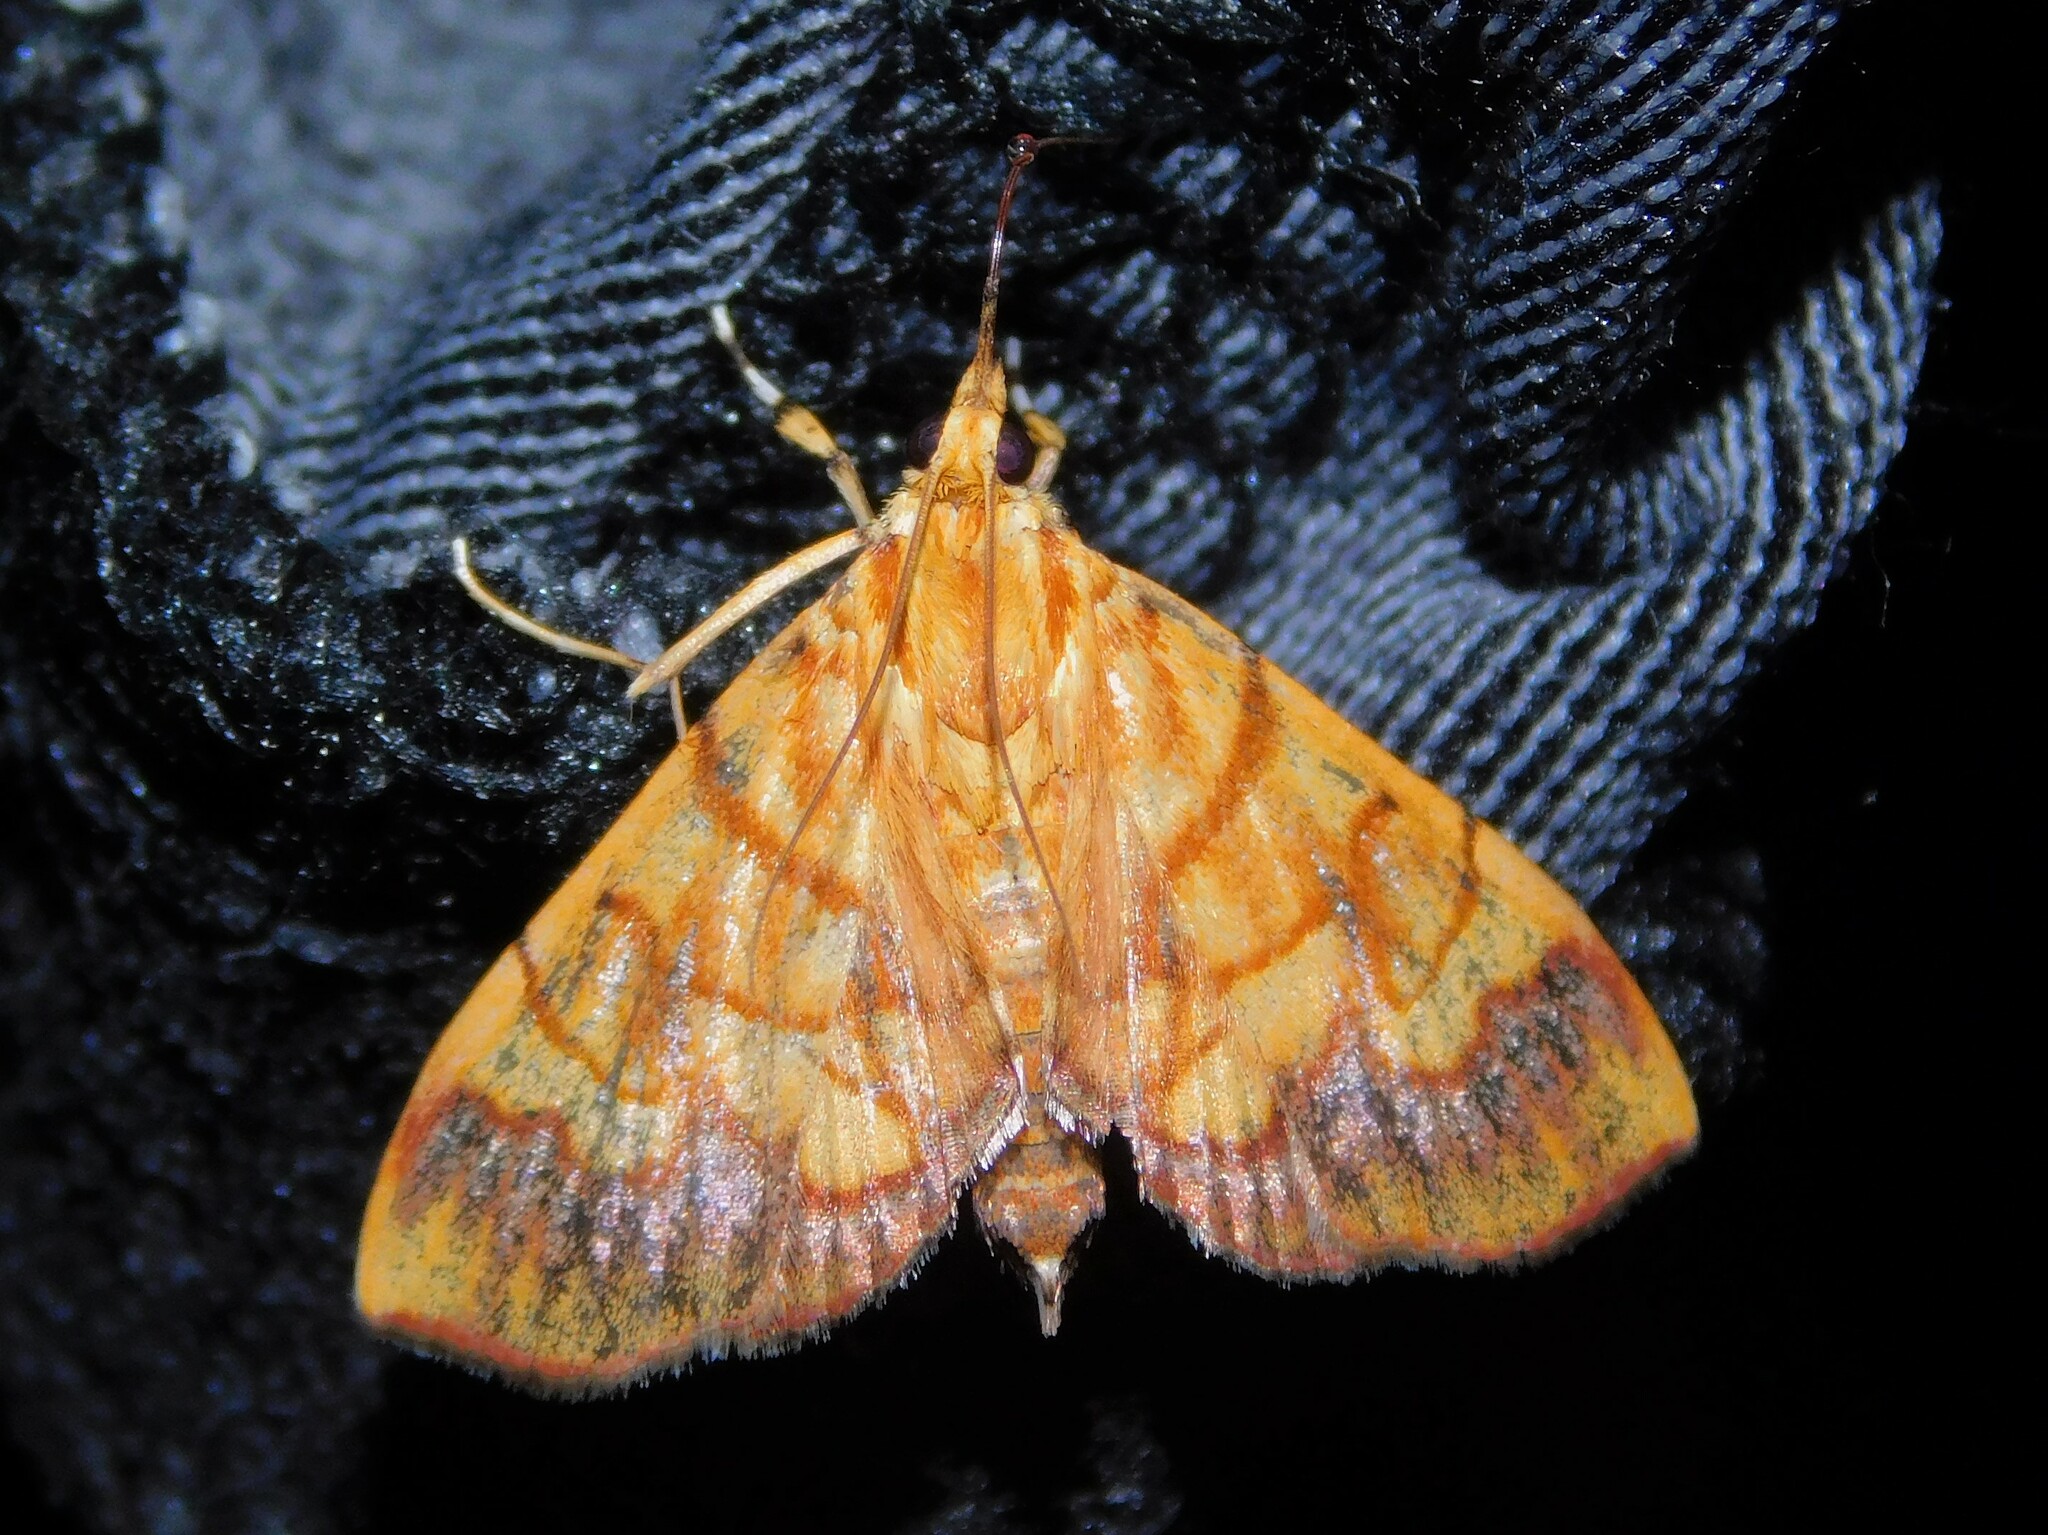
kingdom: Animalia
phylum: Arthropoda
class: Insecta
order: Lepidoptera
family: Crambidae
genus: Cryptosara
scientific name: Cryptosara caritalis
